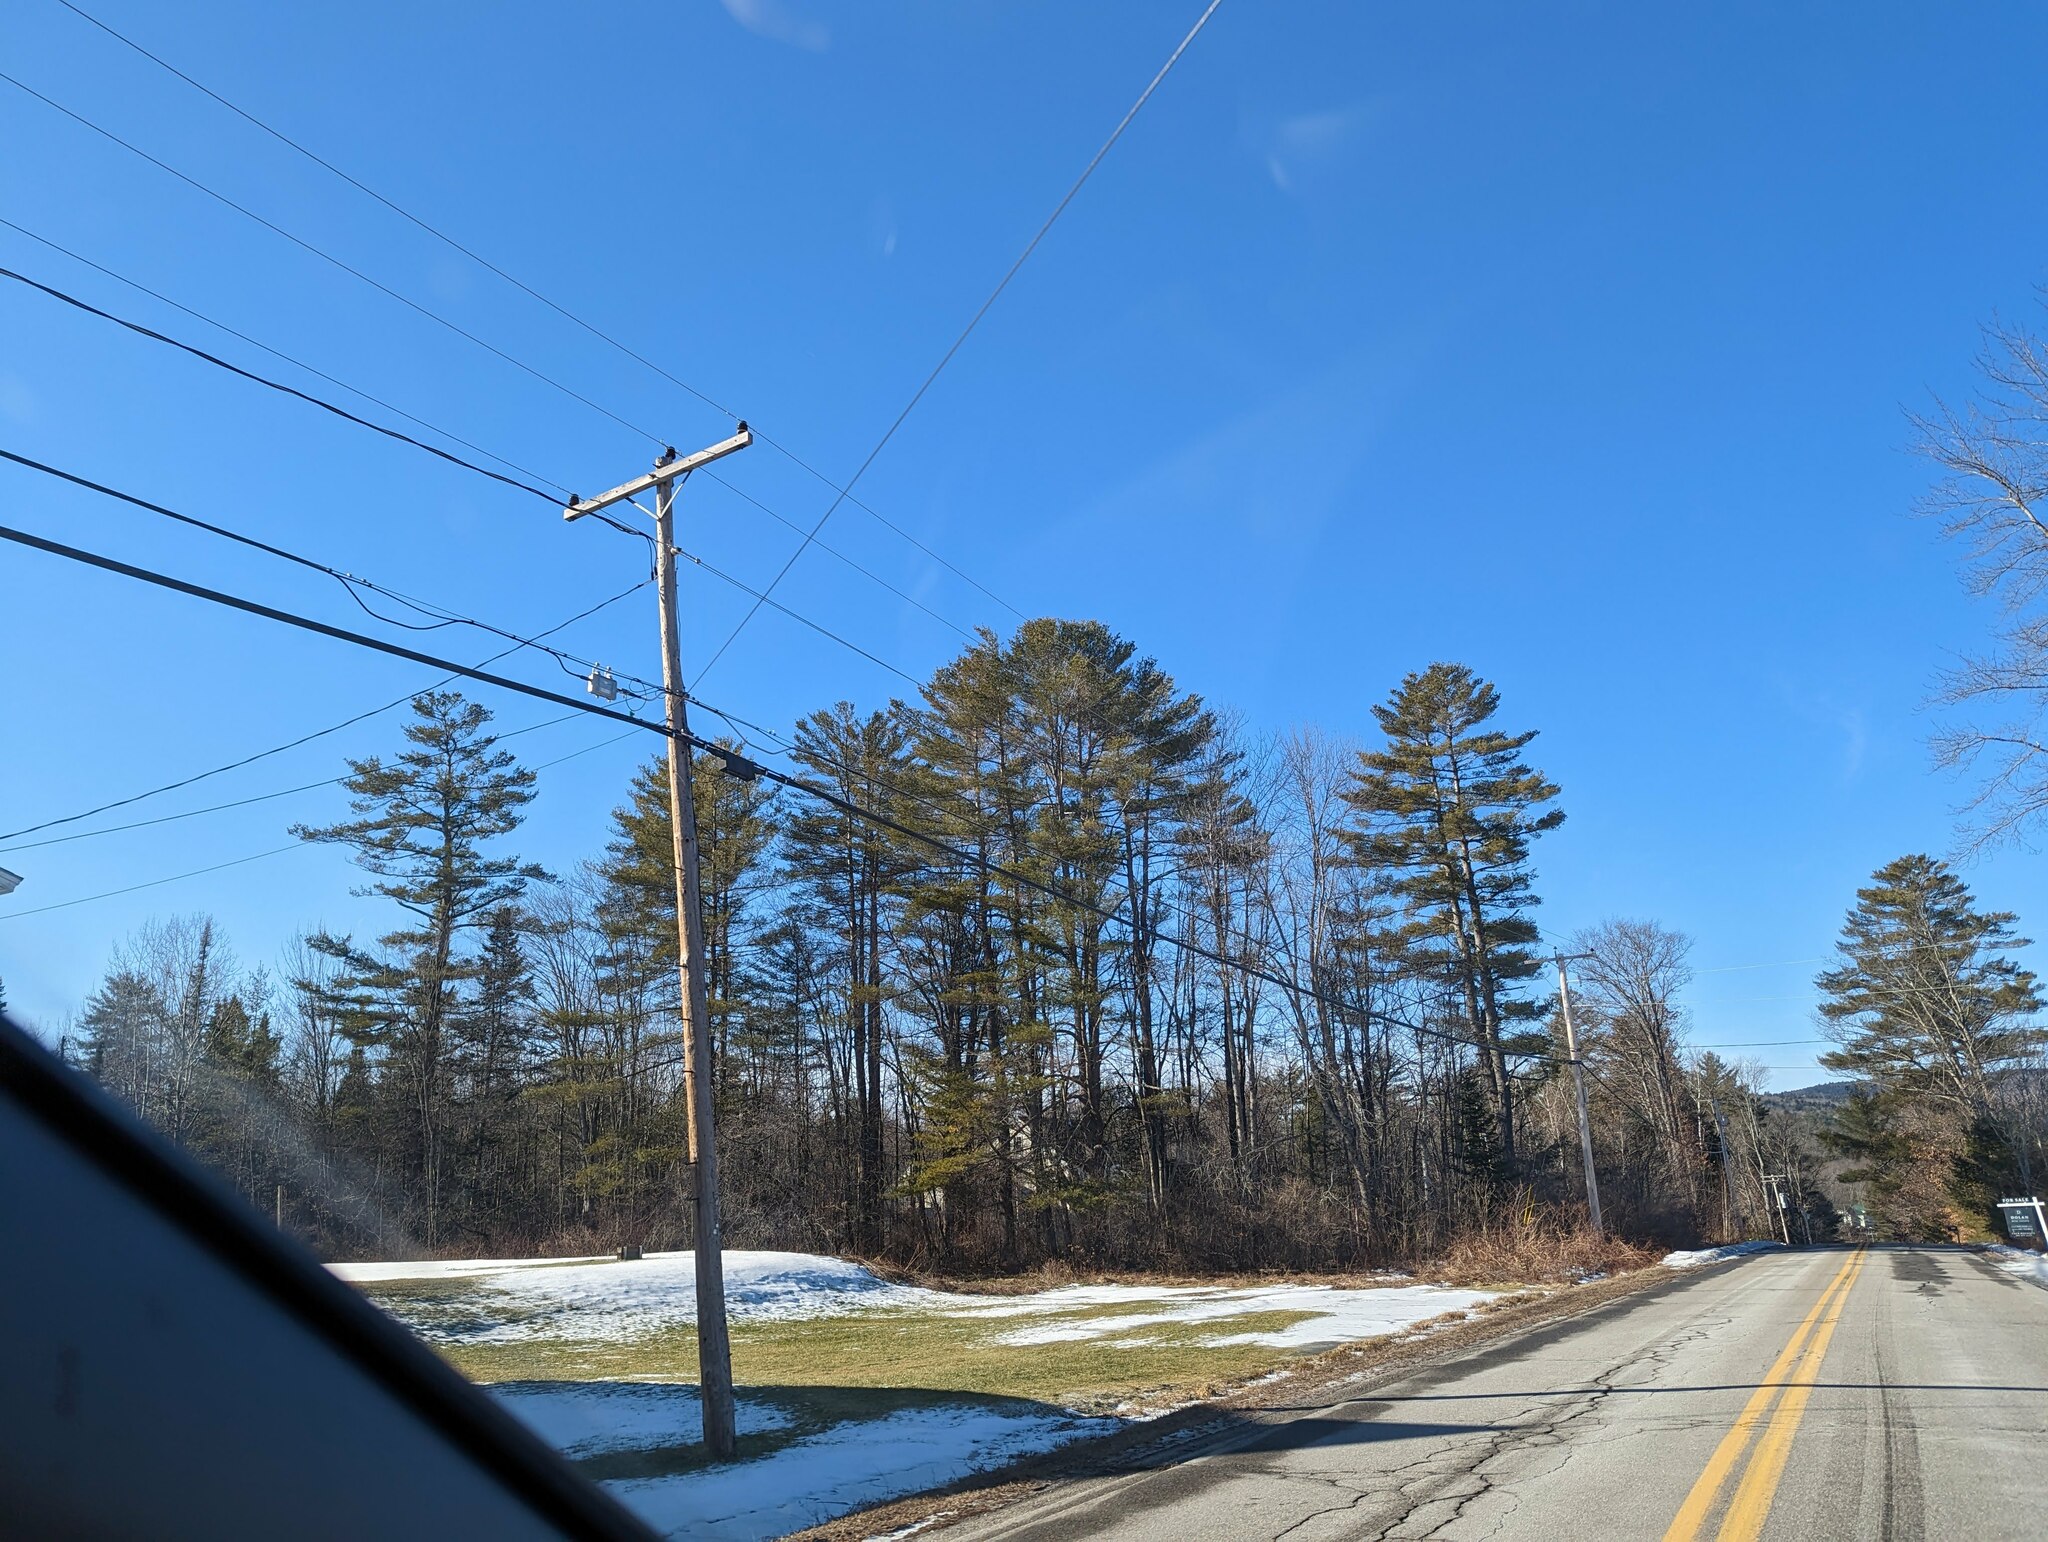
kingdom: Plantae
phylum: Tracheophyta
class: Pinopsida
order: Pinales
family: Pinaceae
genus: Pinus
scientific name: Pinus strobus
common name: Weymouth pine
